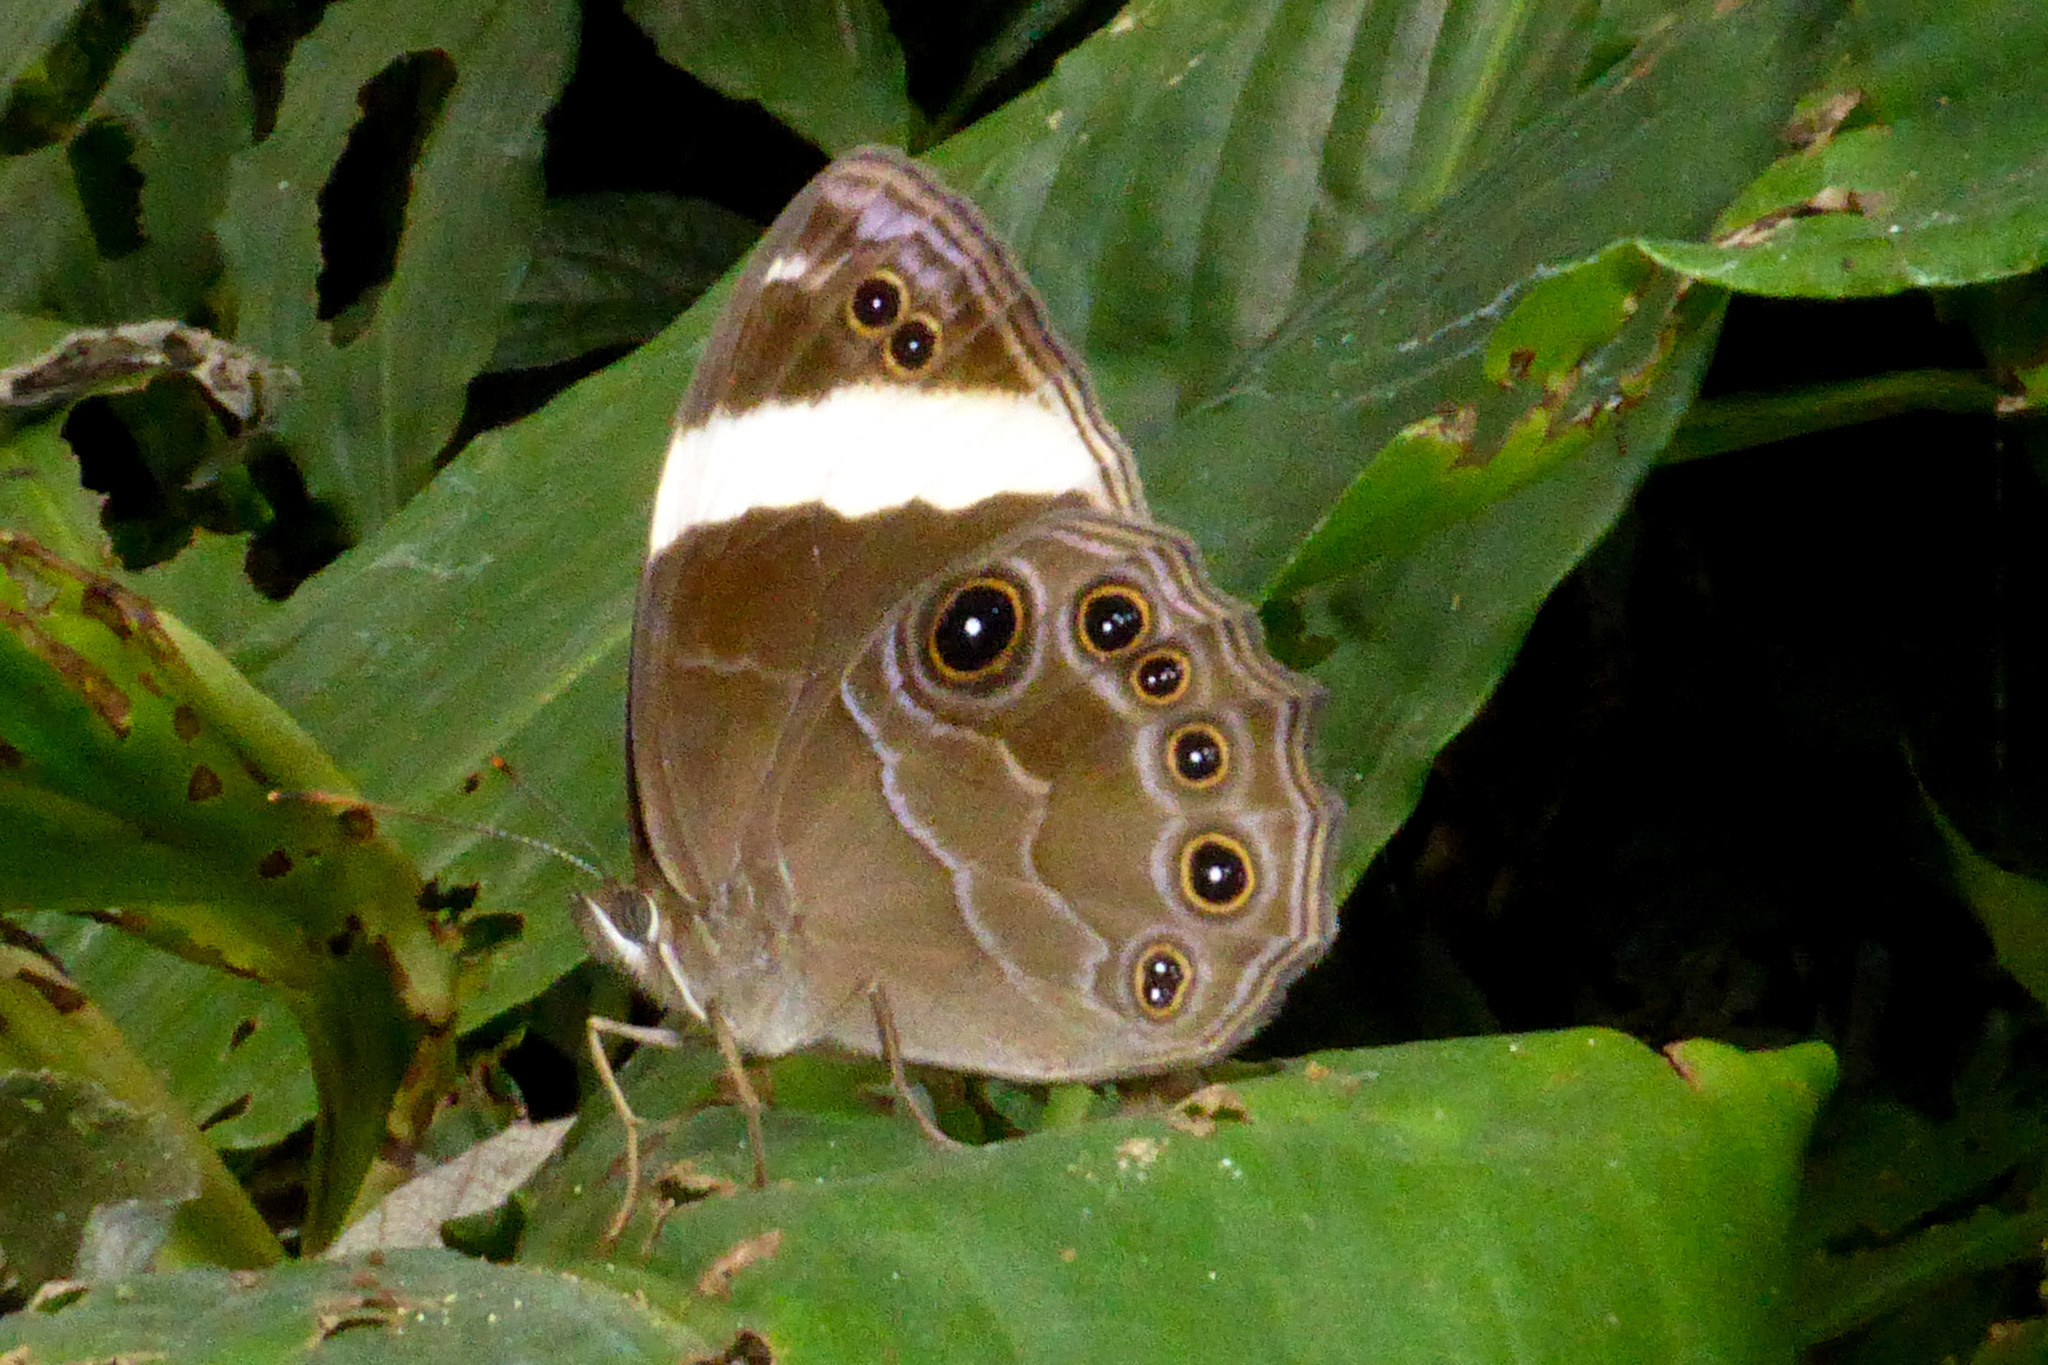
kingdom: Animalia
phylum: Arthropoda
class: Insecta
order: Lepidoptera
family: Nymphalidae
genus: Lethe
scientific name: Lethe verma
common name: Straight-banded treebrown
